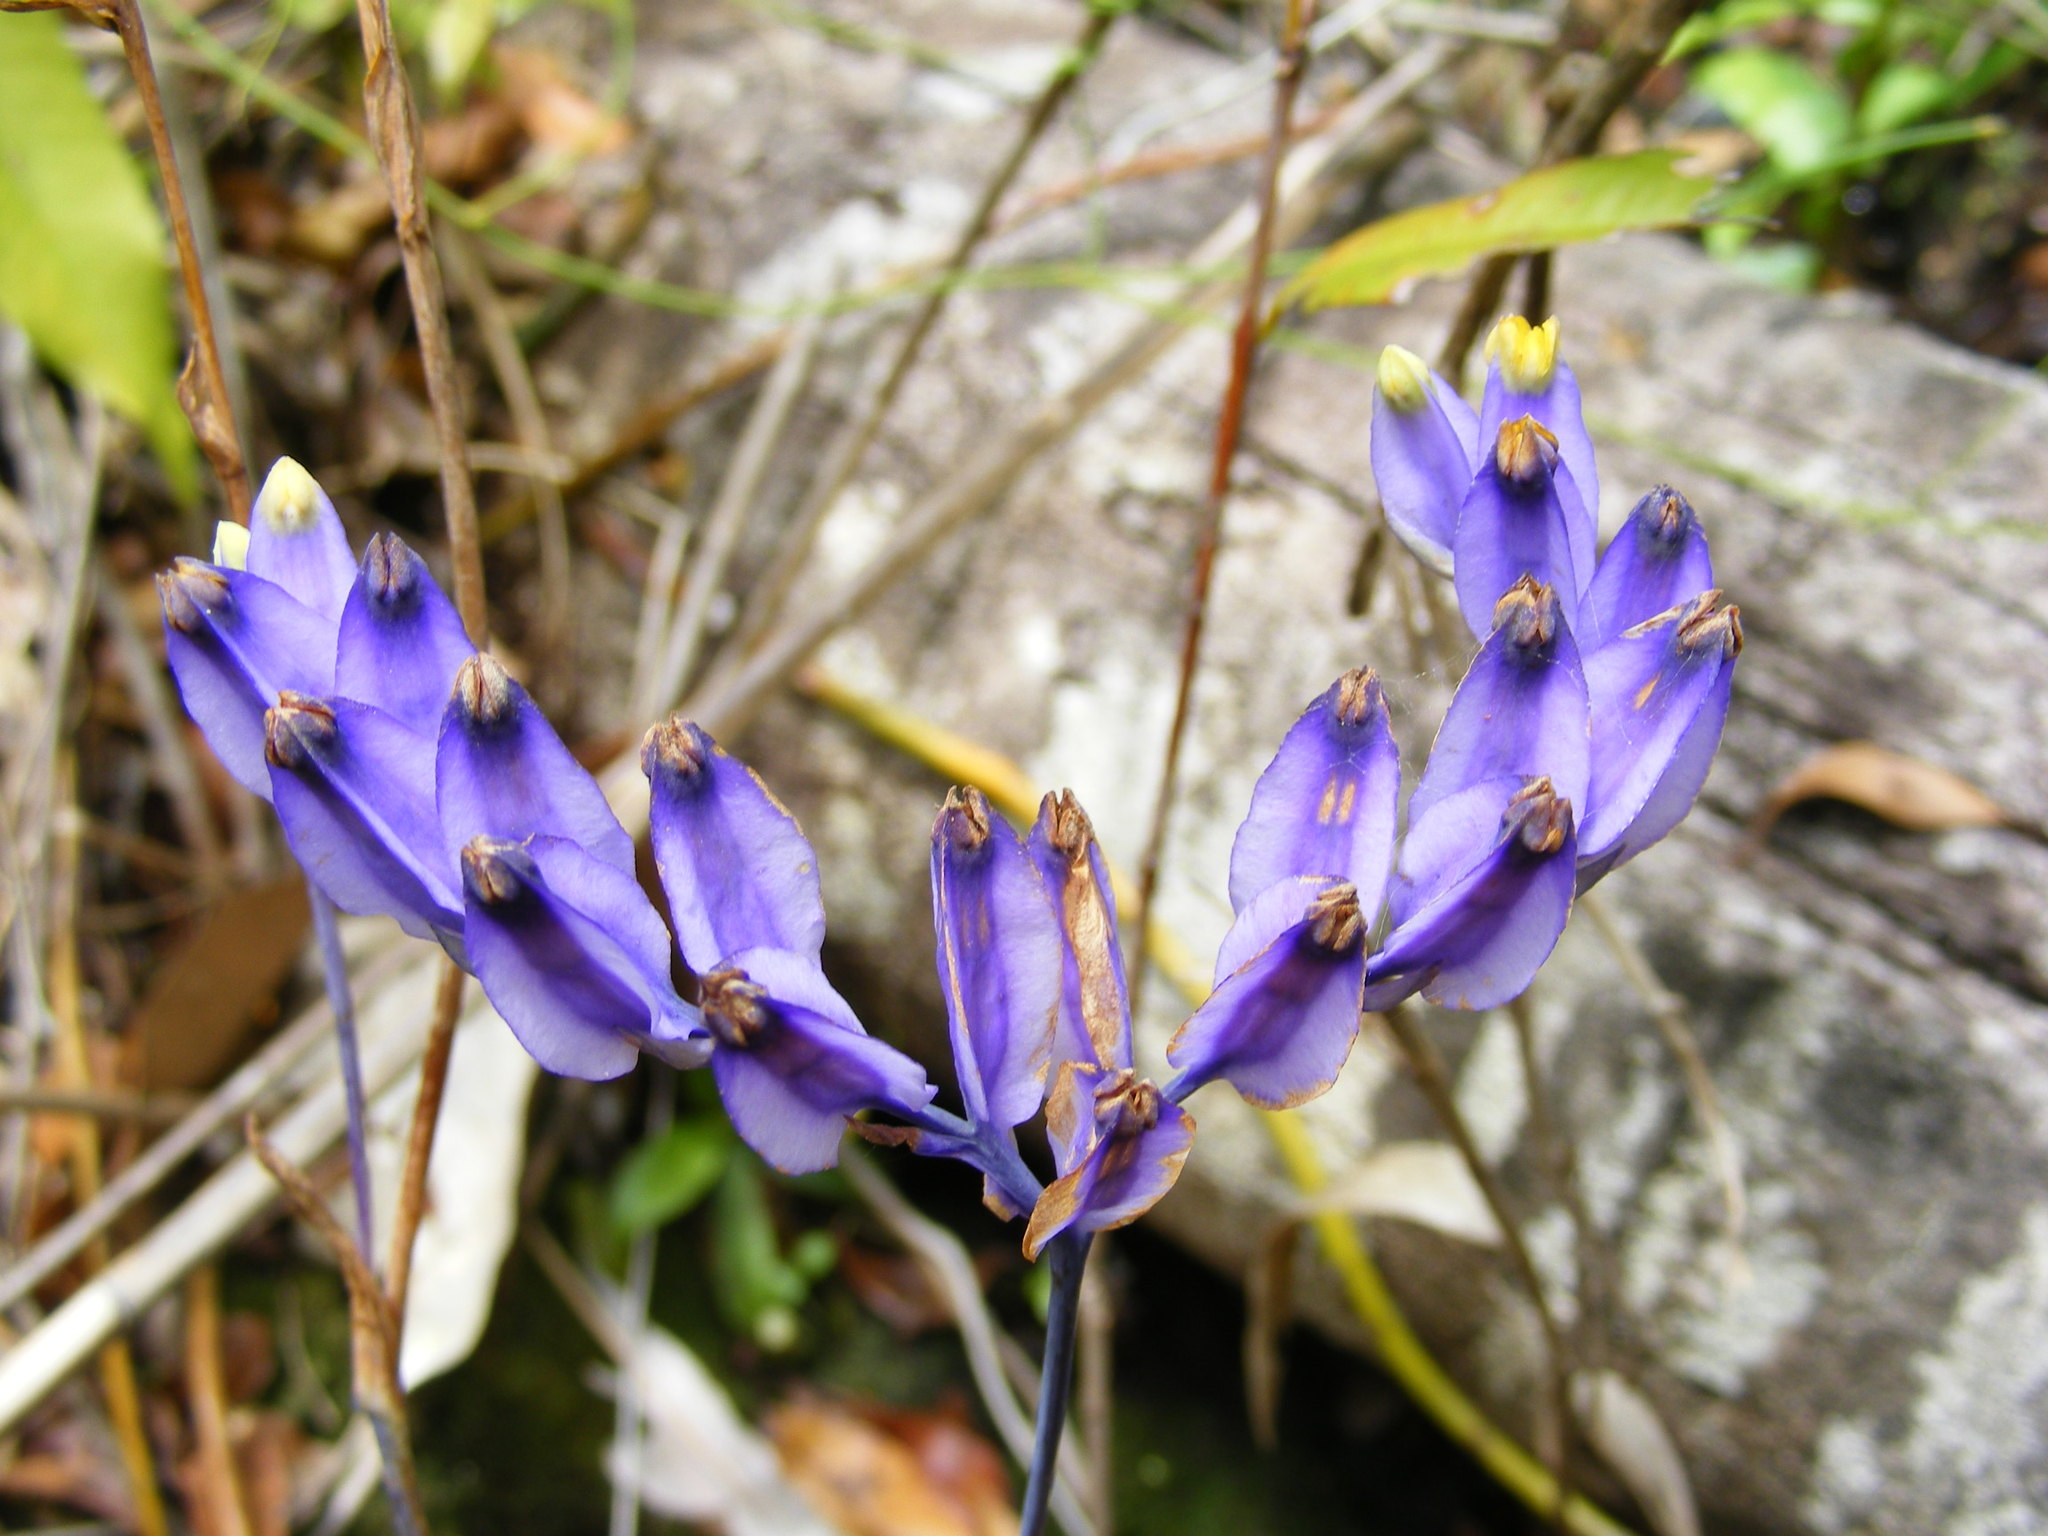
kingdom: Plantae
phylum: Tracheophyta
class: Liliopsida
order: Dioscoreales
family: Burmanniaceae
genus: Burmannia
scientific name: Burmannia disticha
